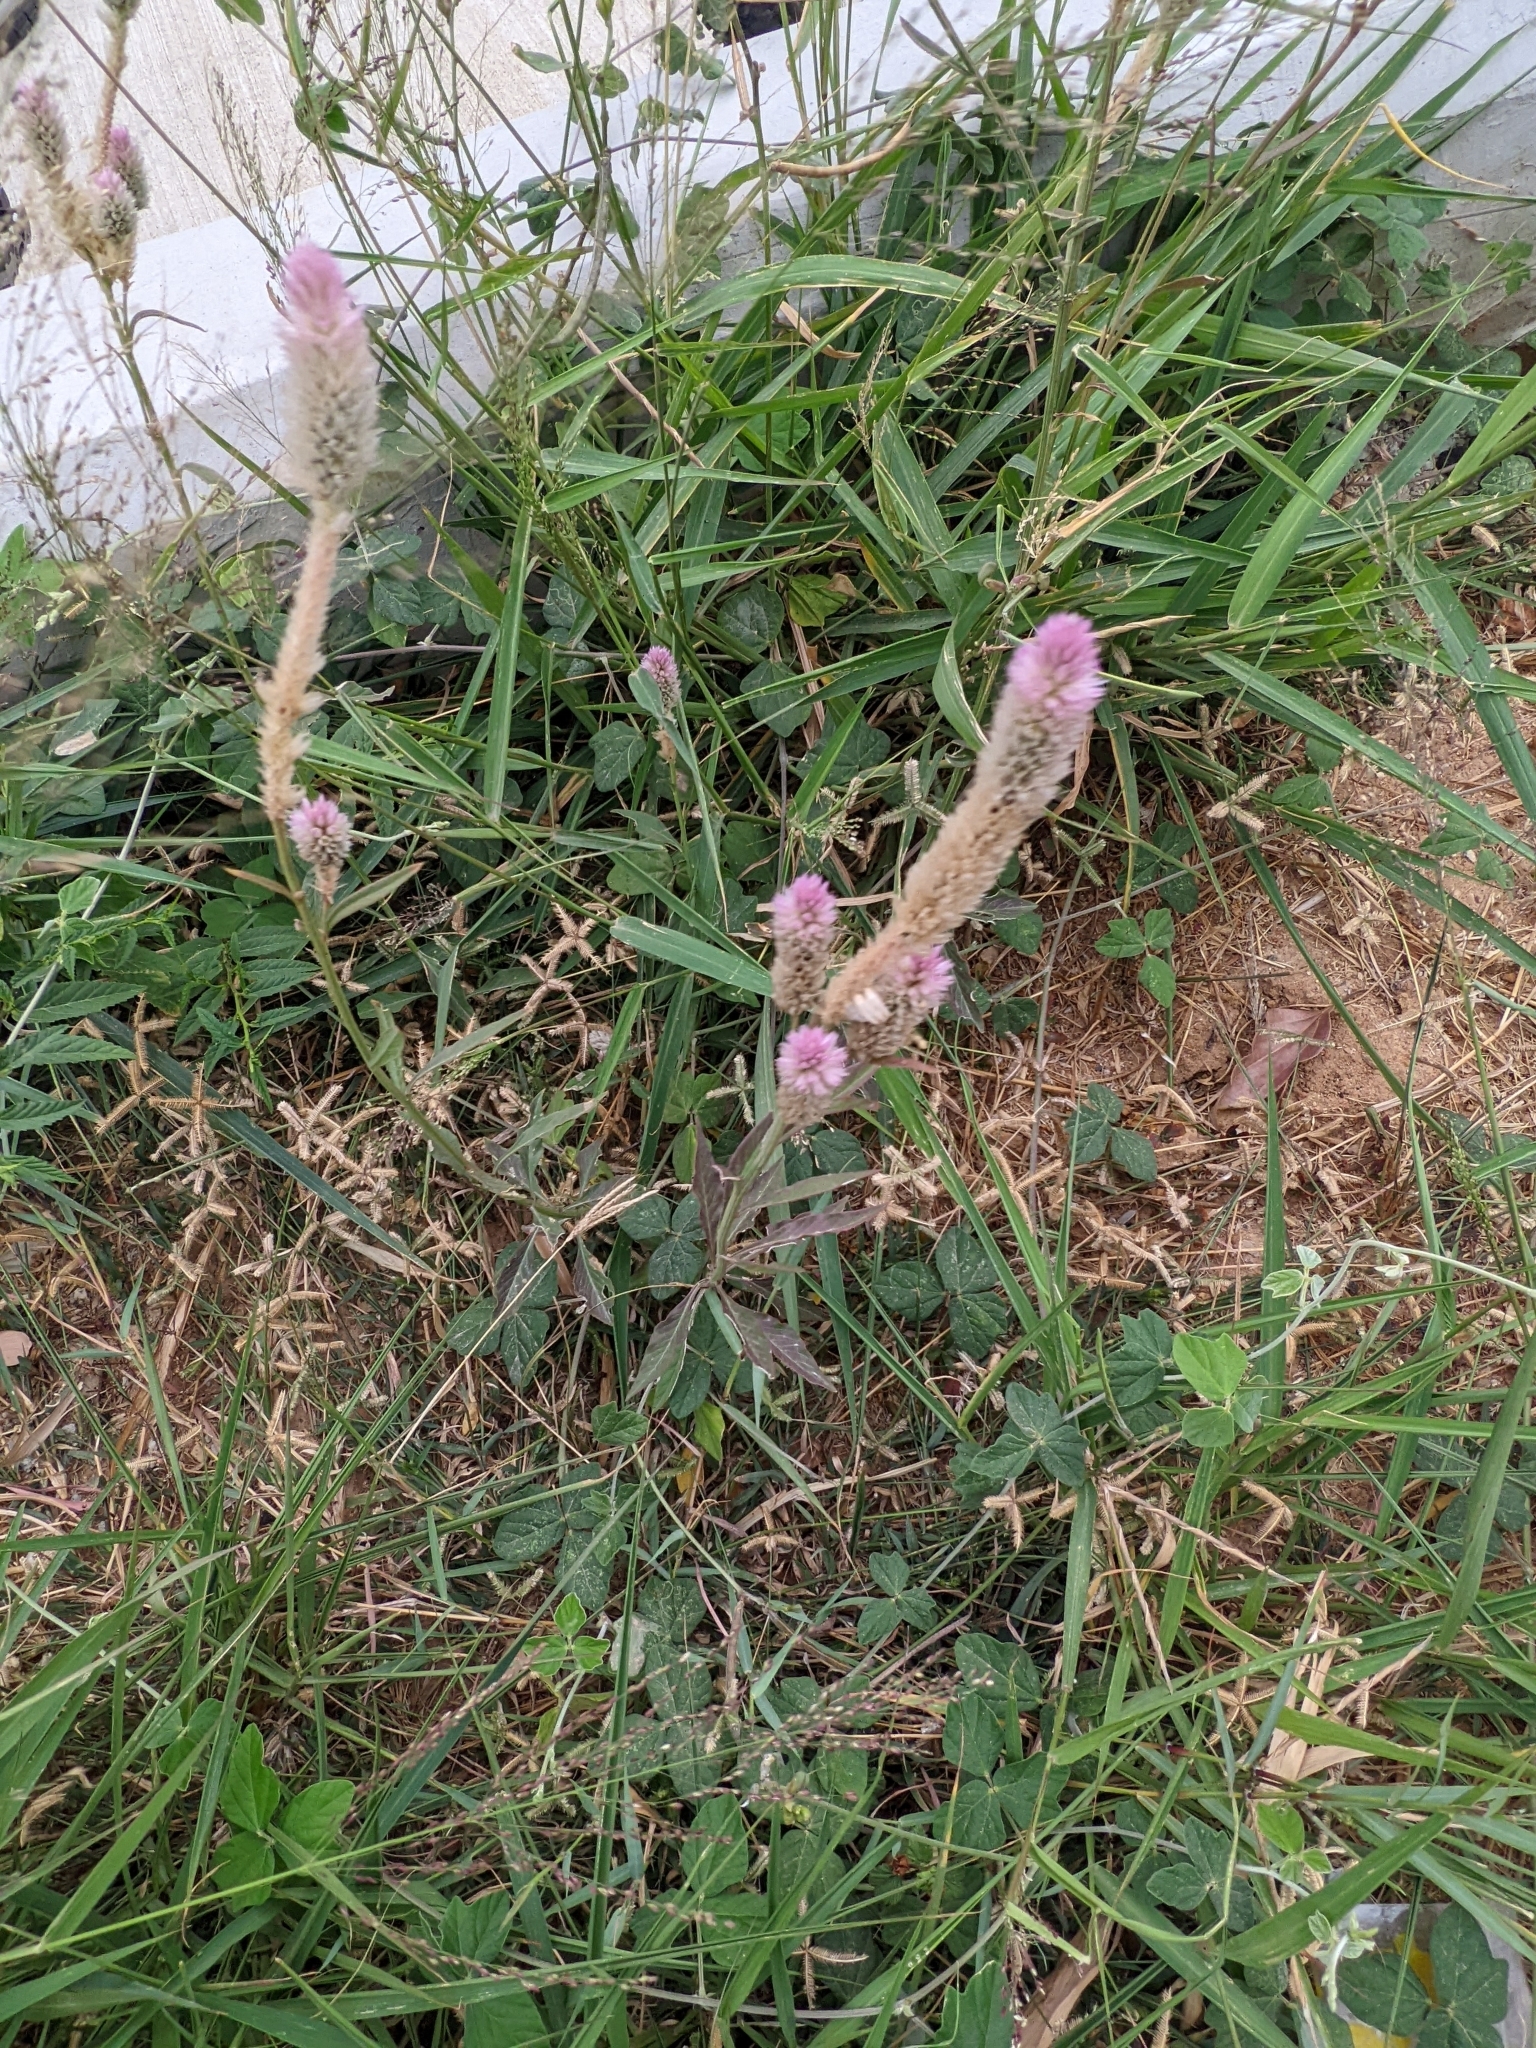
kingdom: Plantae
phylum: Tracheophyta
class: Magnoliopsida
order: Caryophyllales
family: Amaranthaceae
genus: Celosia
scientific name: Celosia argentea
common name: Feather cockscomb
